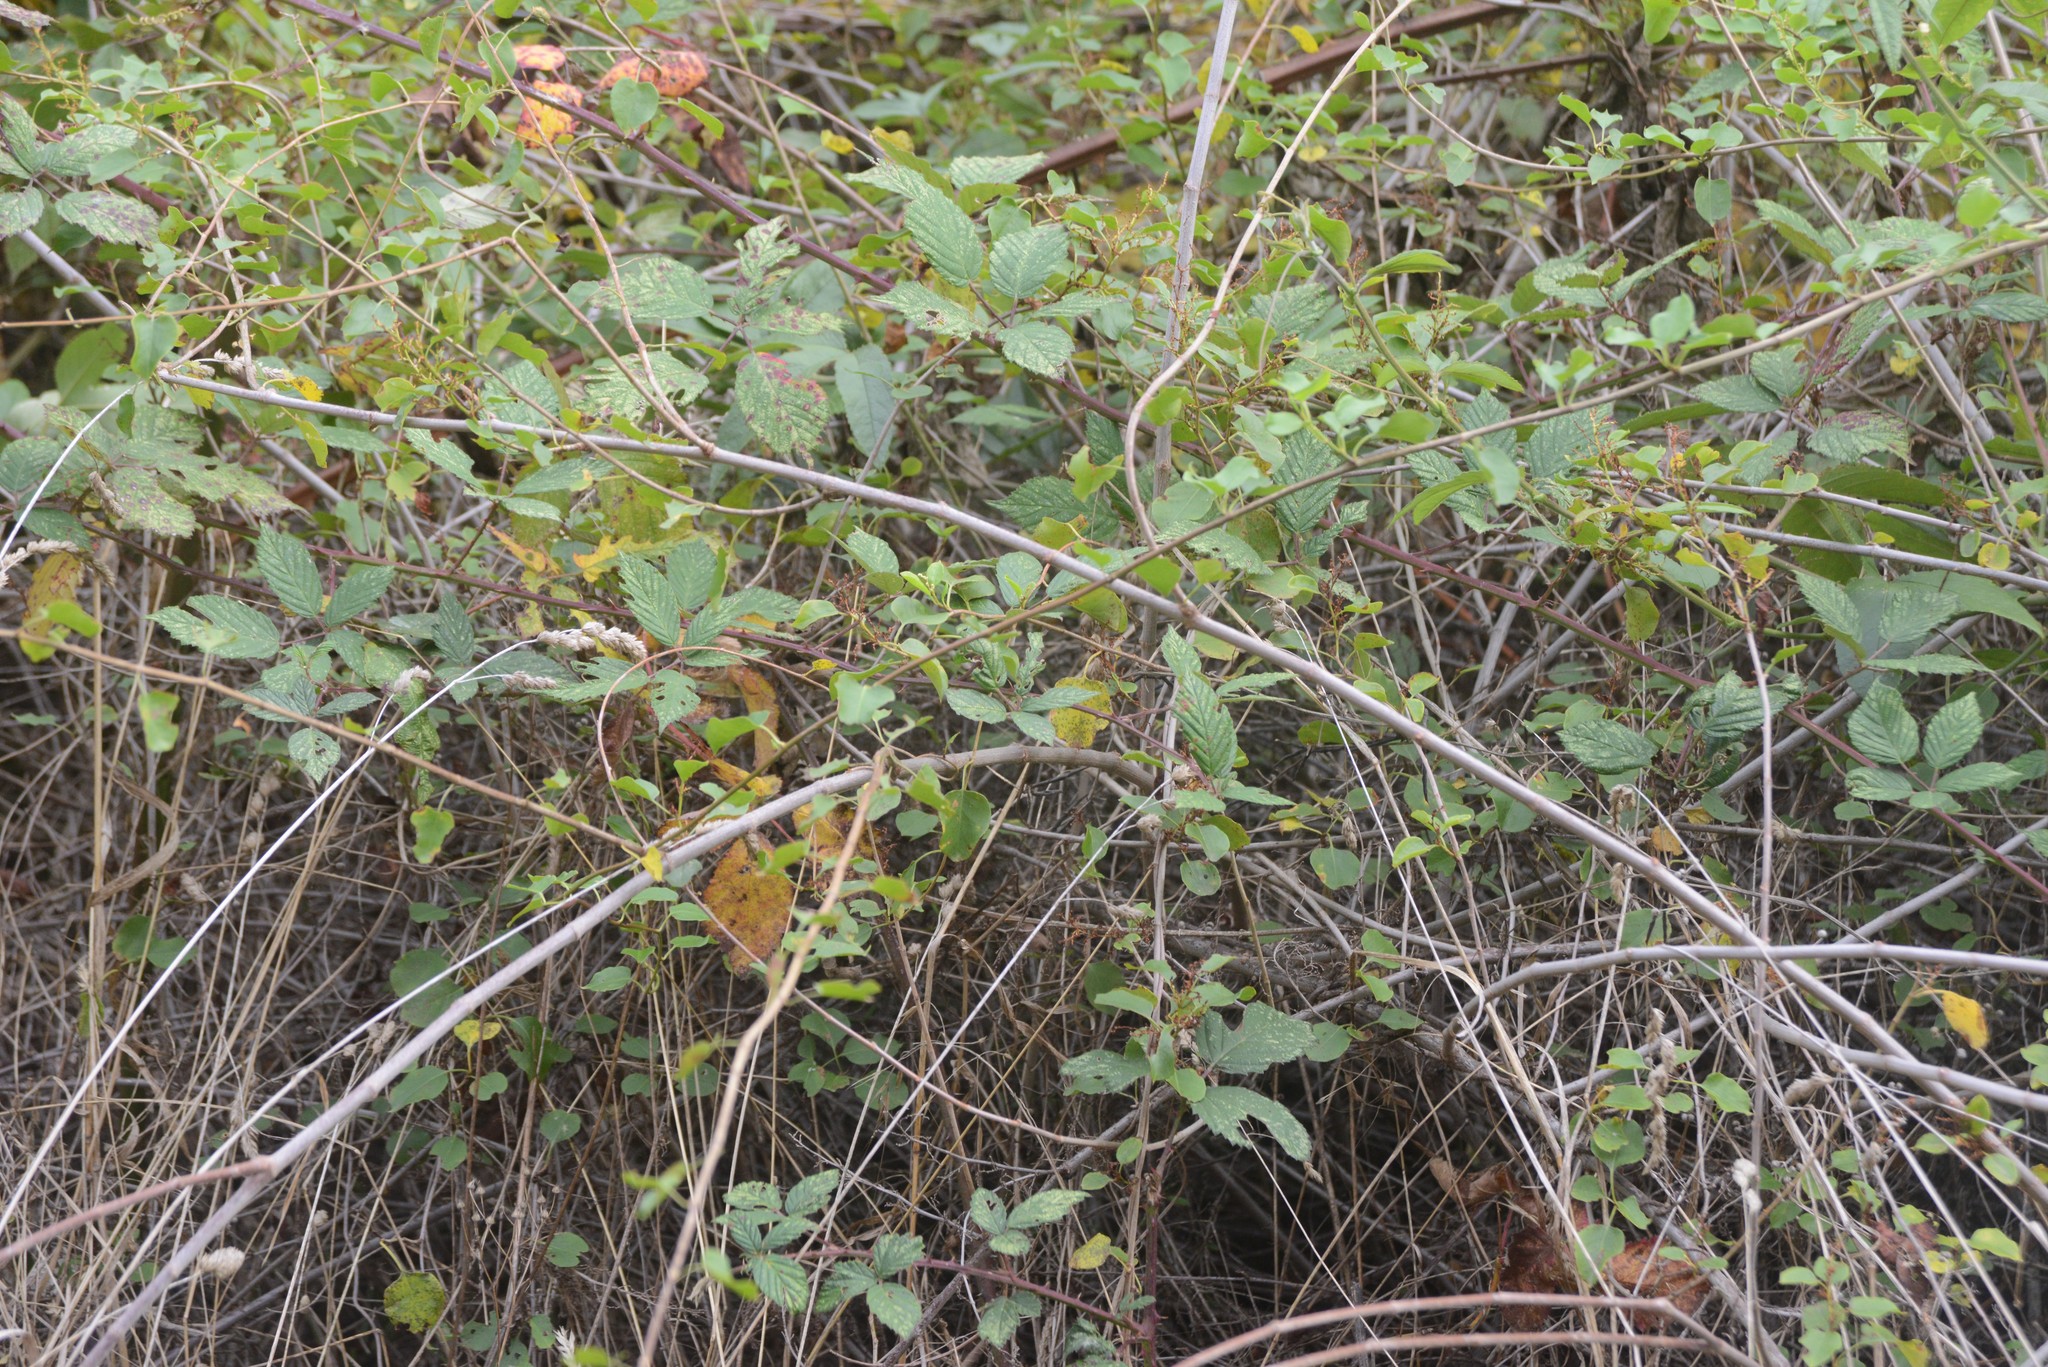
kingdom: Plantae
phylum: Tracheophyta
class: Magnoliopsida
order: Caryophyllales
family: Polygonaceae
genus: Muehlenbeckia
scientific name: Muehlenbeckia australis
